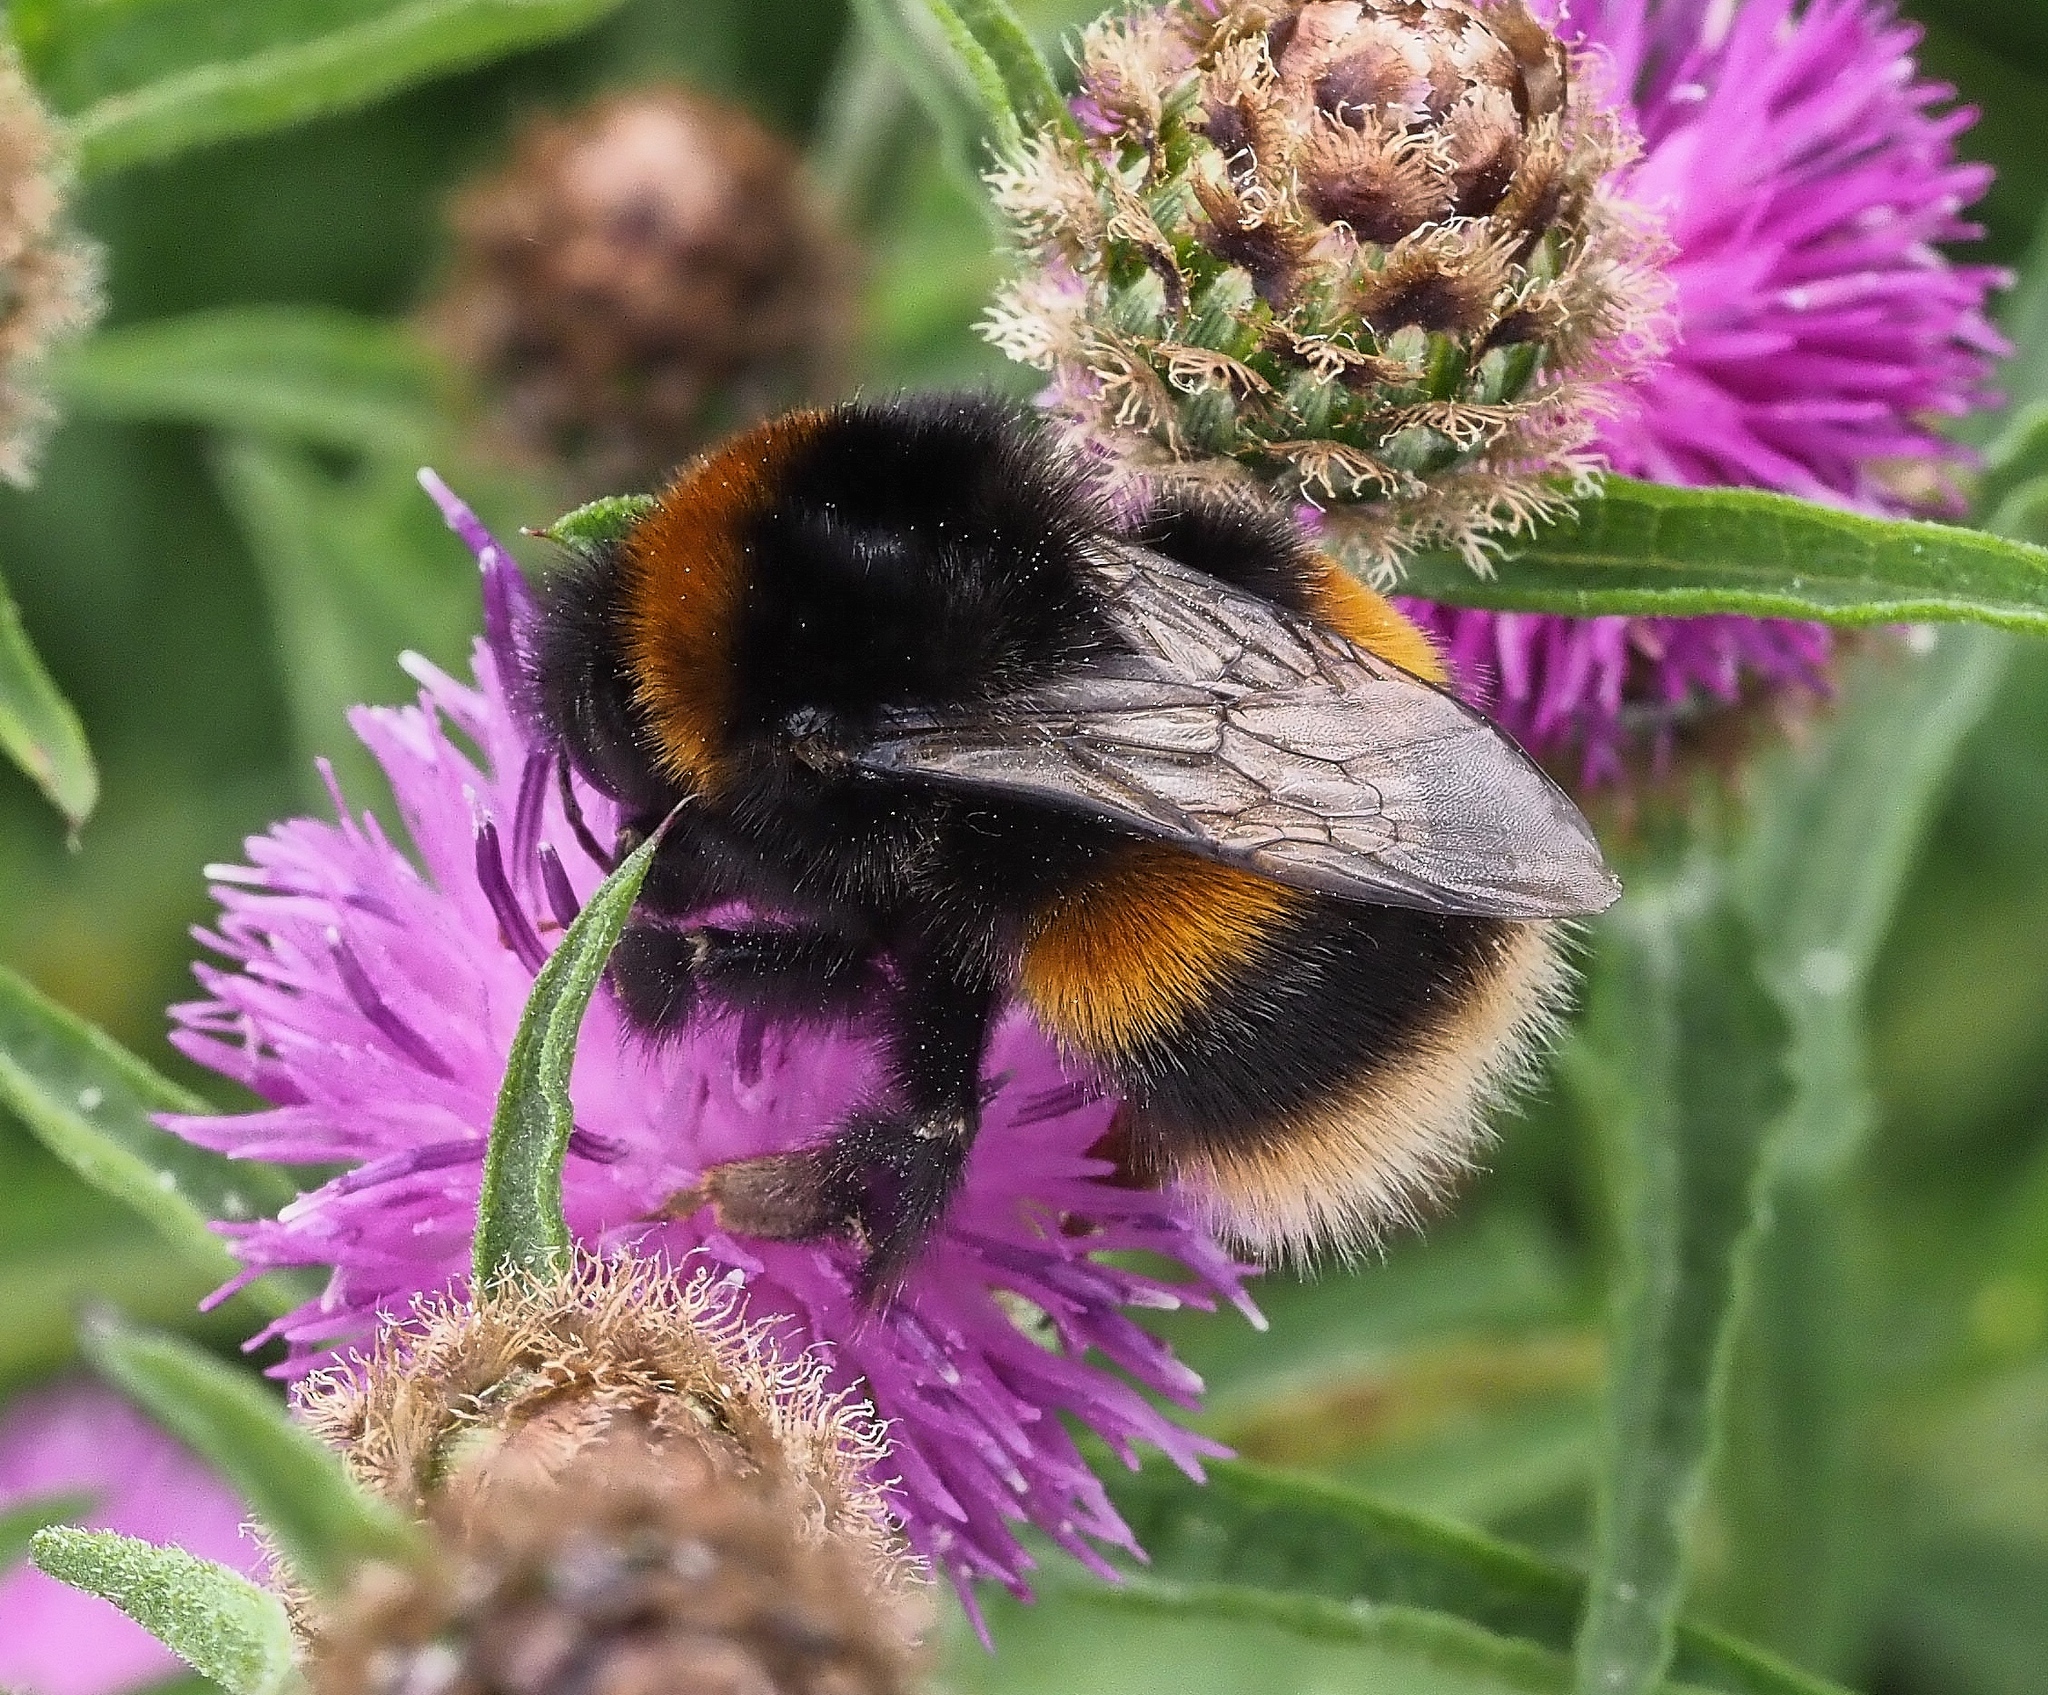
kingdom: Animalia
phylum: Arthropoda
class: Insecta
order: Hymenoptera
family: Apidae
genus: Bombus
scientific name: Bombus terrestris
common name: Buff-tailed bumblebee
